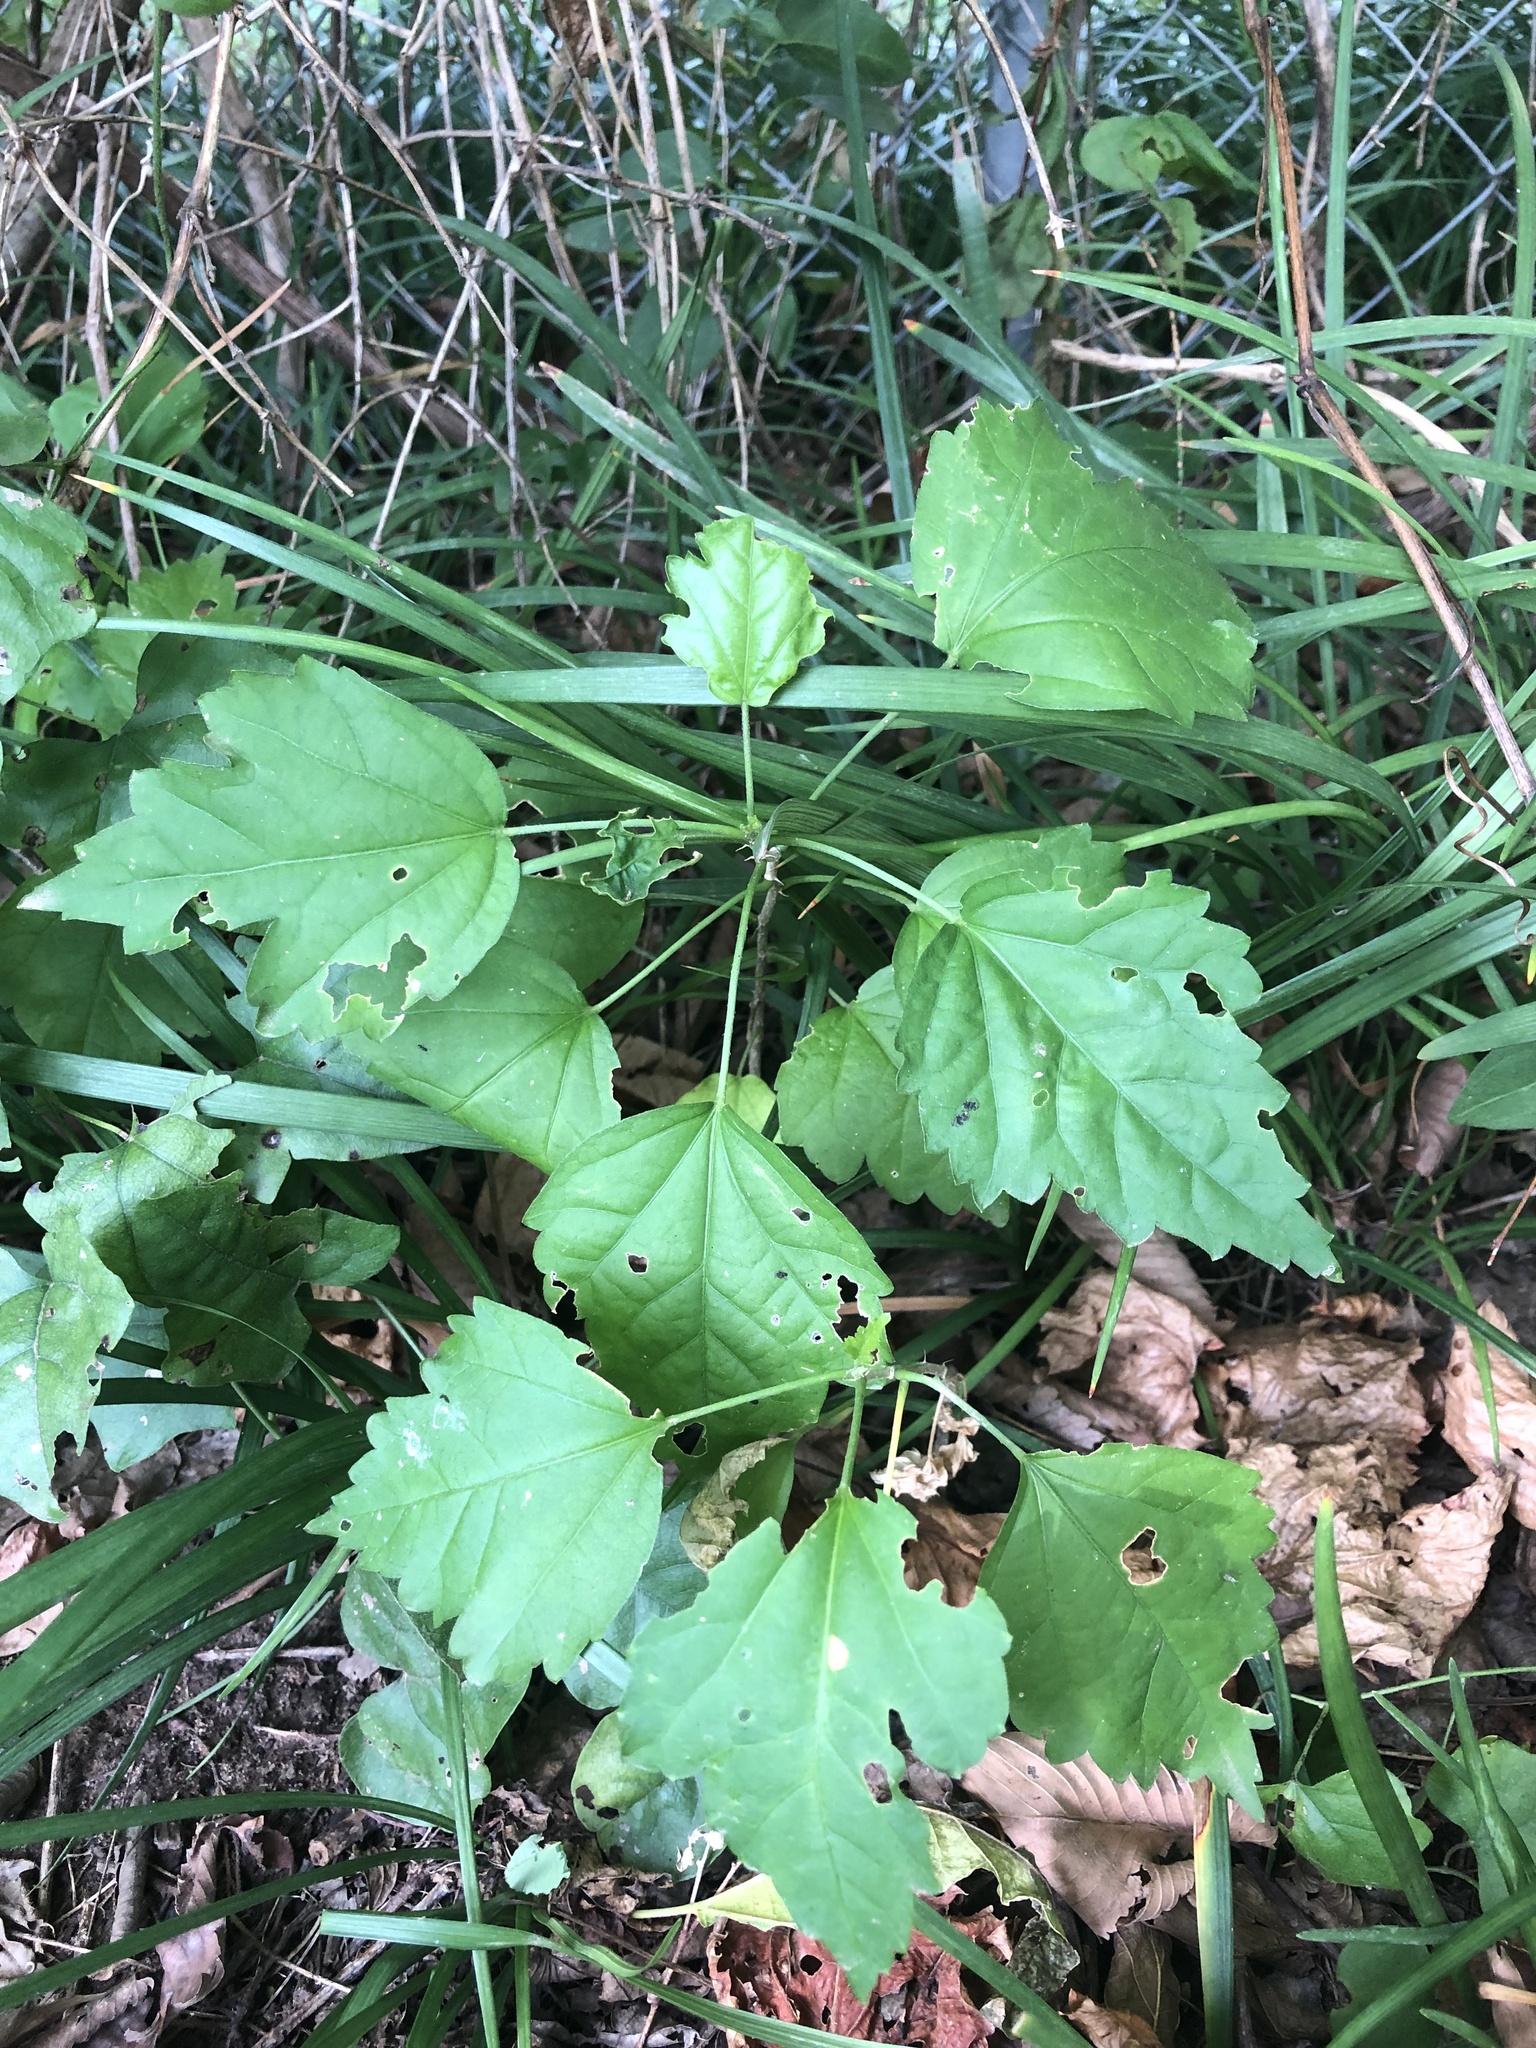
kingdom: Plantae
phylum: Tracheophyta
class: Magnoliopsida
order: Malvales
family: Malvaceae
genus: Hibiscus
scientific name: Hibiscus syriacus
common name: Syrian ketmia
